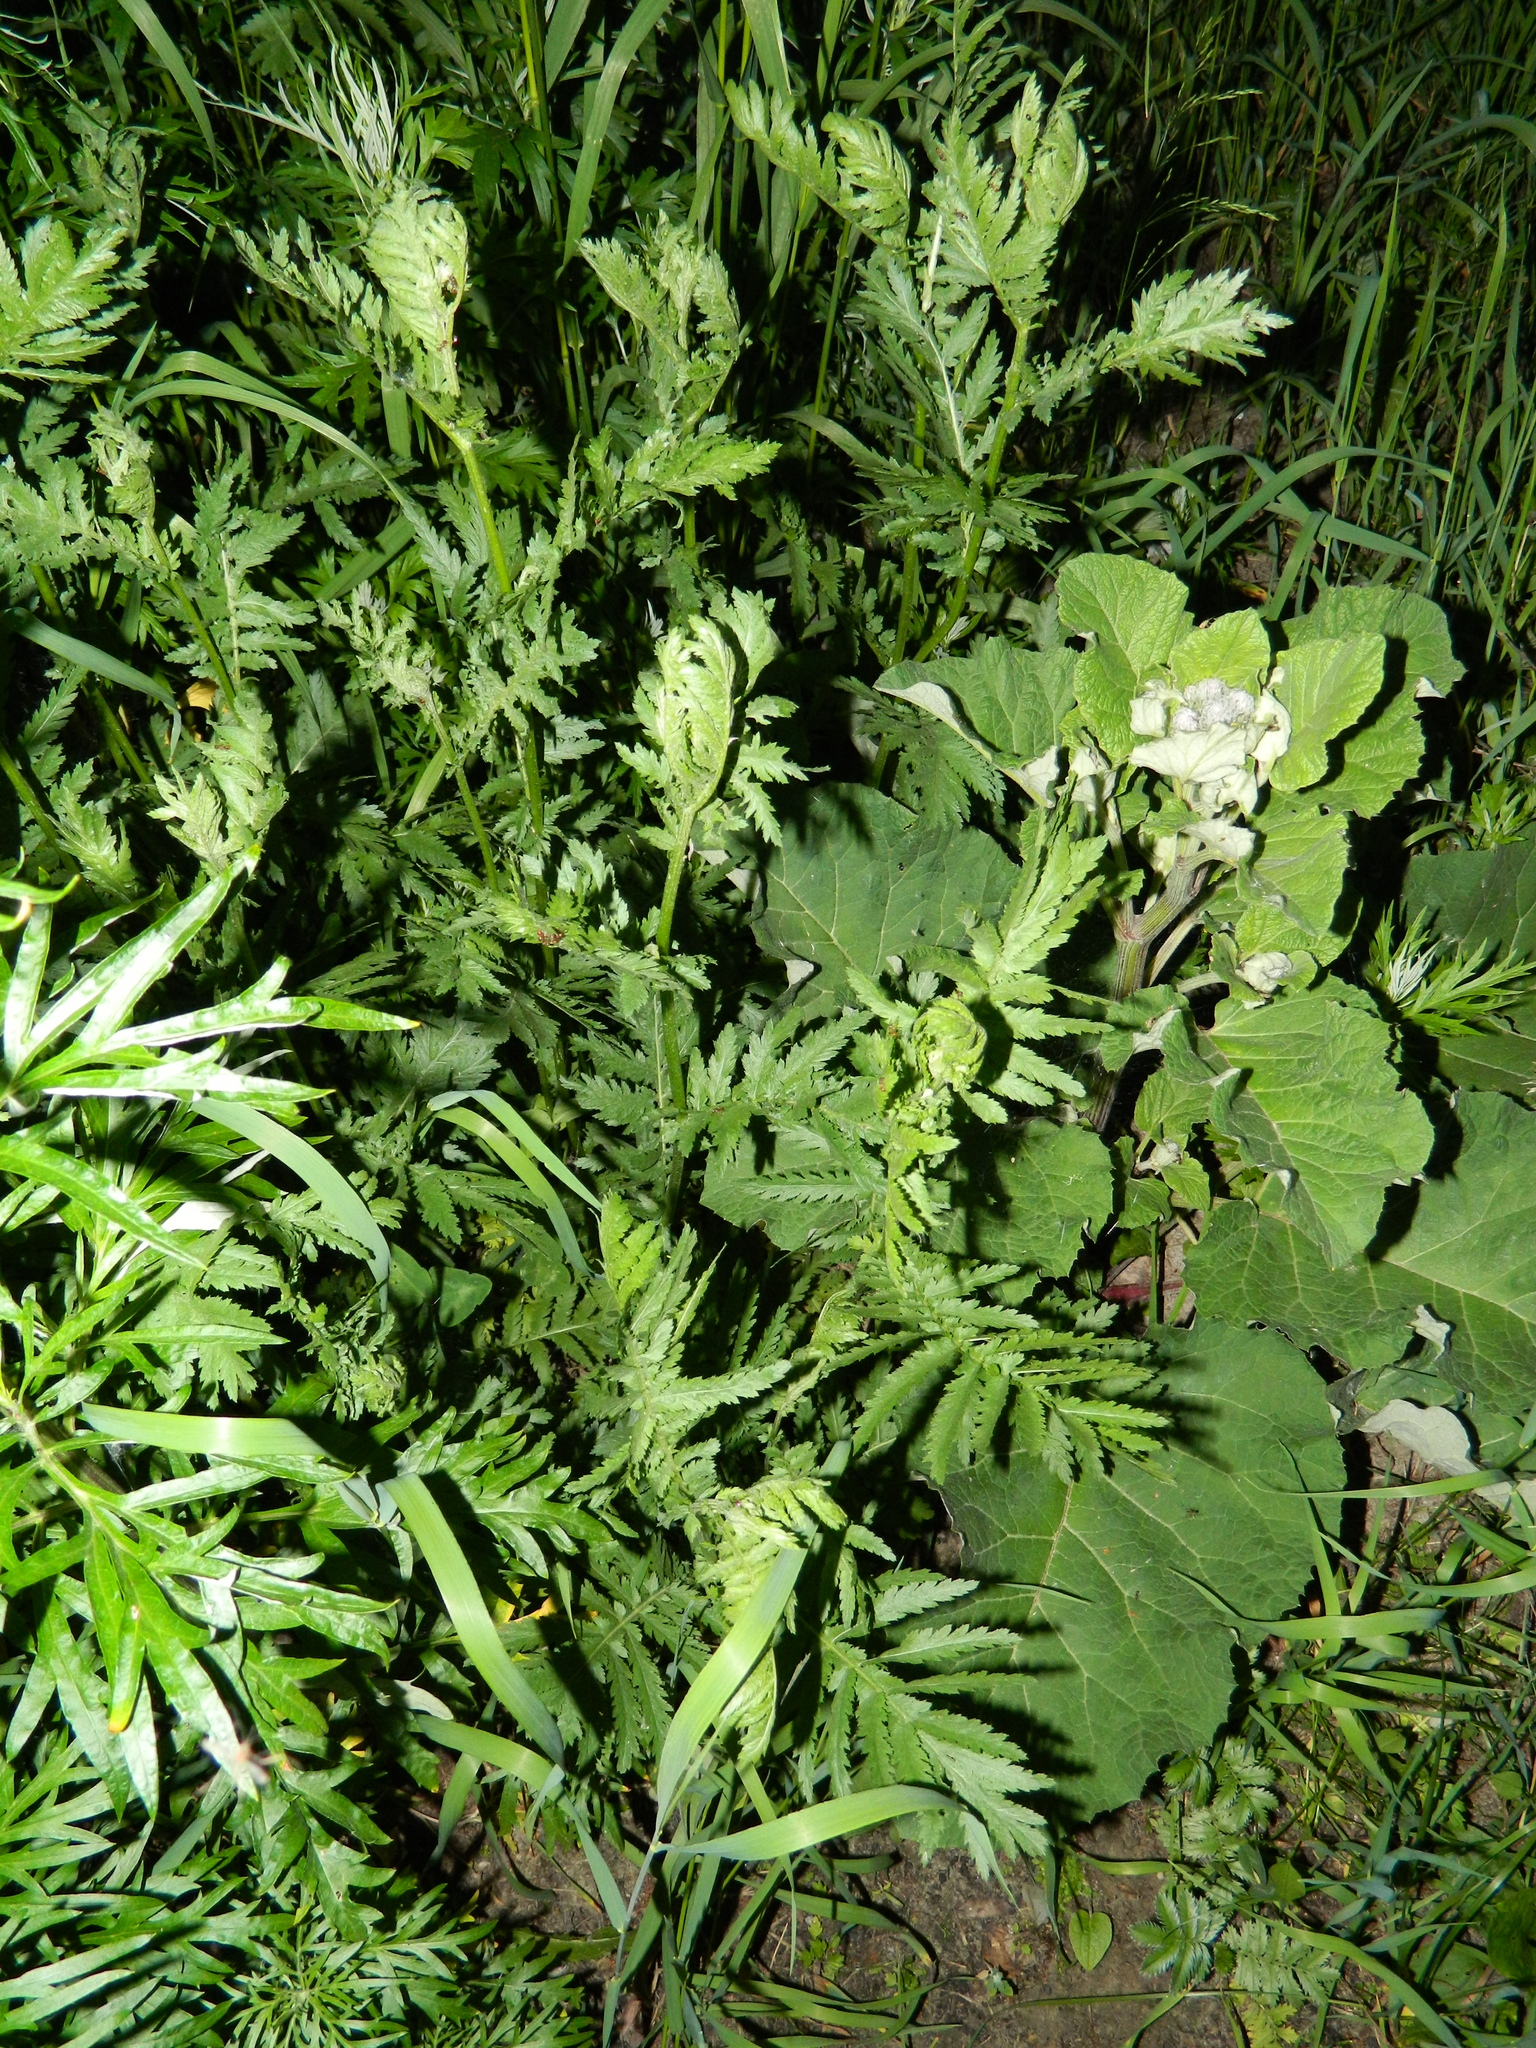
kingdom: Plantae
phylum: Tracheophyta
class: Magnoliopsida
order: Asterales
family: Asteraceae
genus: Tanacetum
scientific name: Tanacetum vulgare
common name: Common tansy
